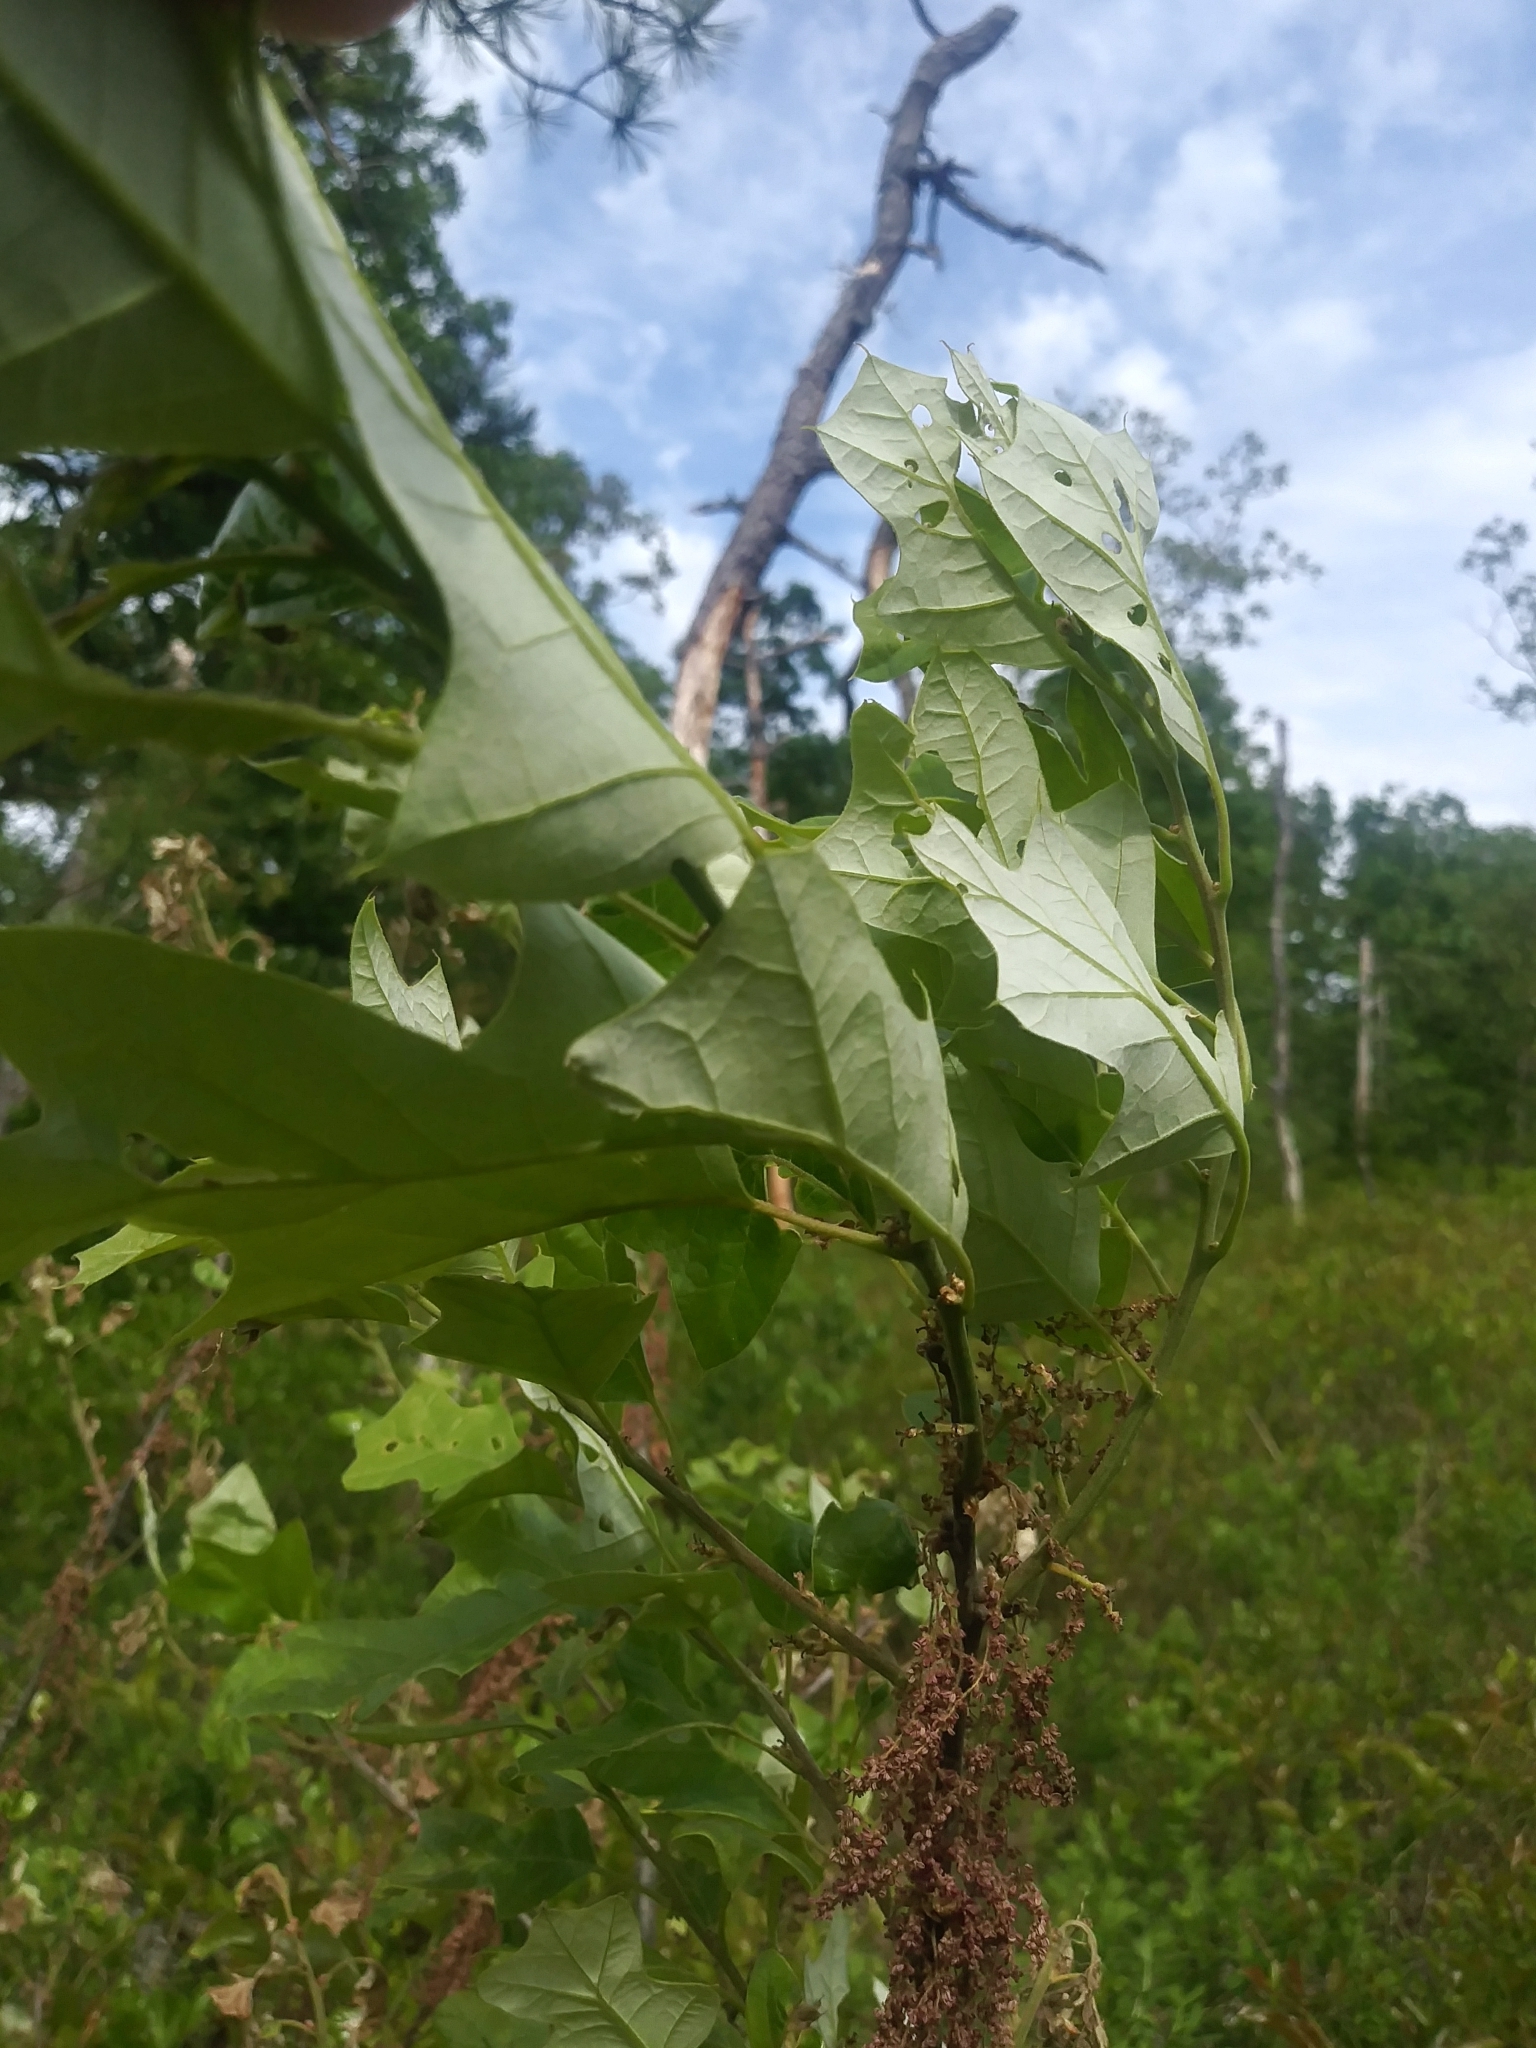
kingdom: Plantae
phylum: Tracheophyta
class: Magnoliopsida
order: Fagales
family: Fagaceae
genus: Quercus
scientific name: Quercus ilicifolia
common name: Bear oak
